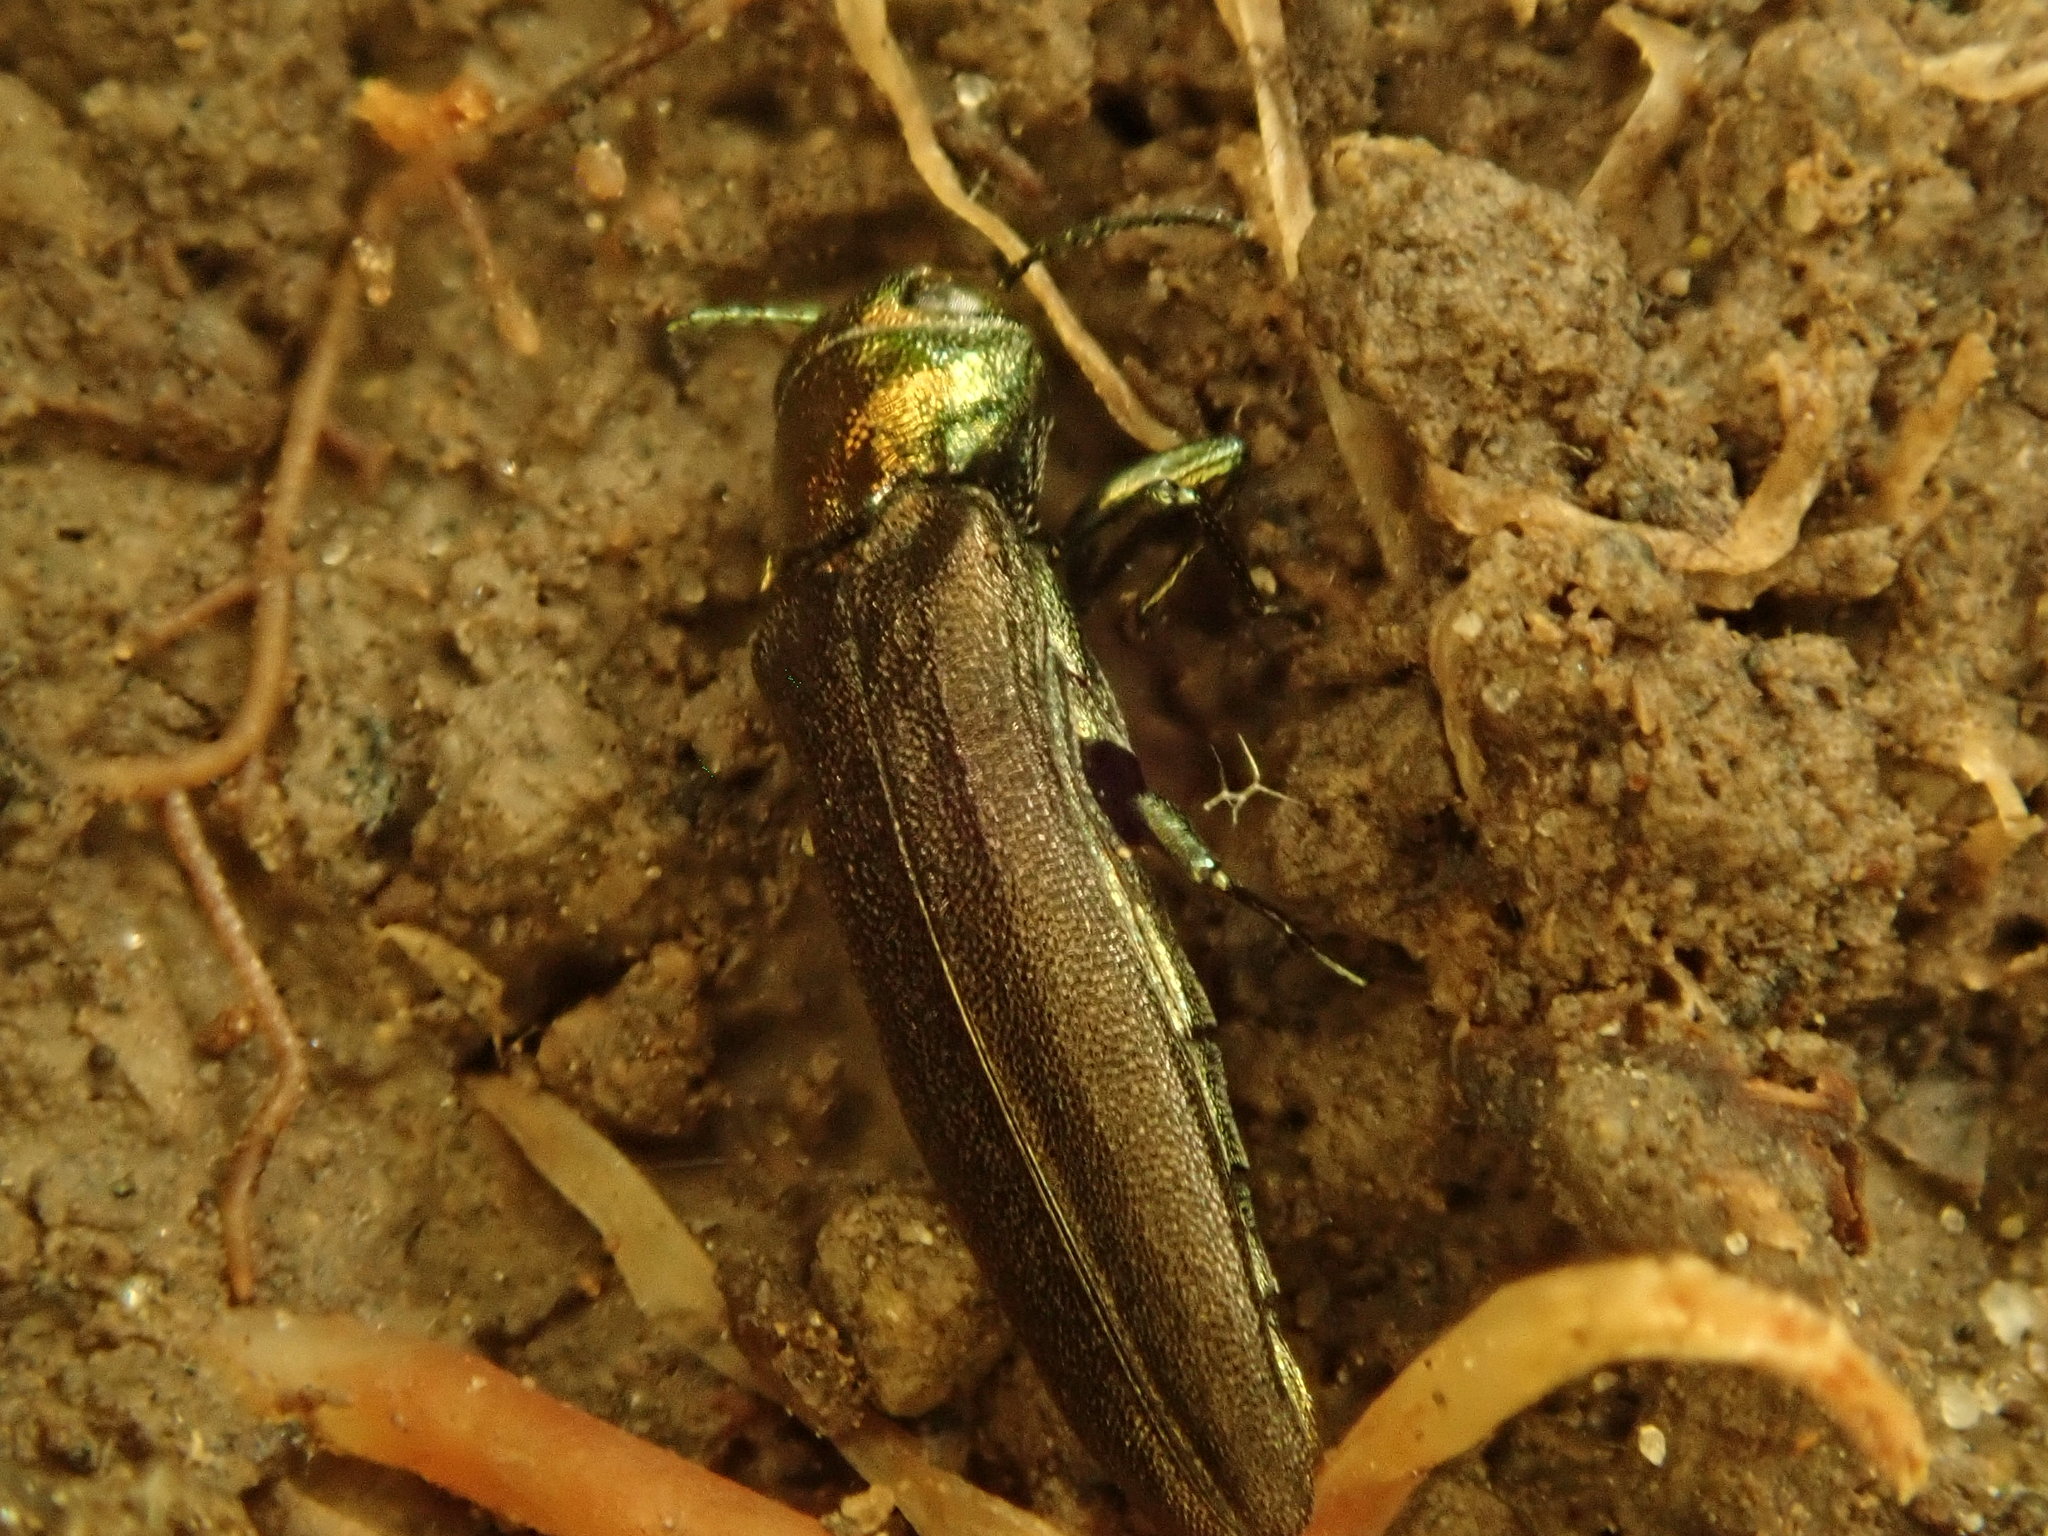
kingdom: Animalia
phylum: Arthropoda
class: Insecta
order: Coleoptera
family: Buprestidae
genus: Agrilus
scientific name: Agrilus planipennis
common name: Emerald ash borer
